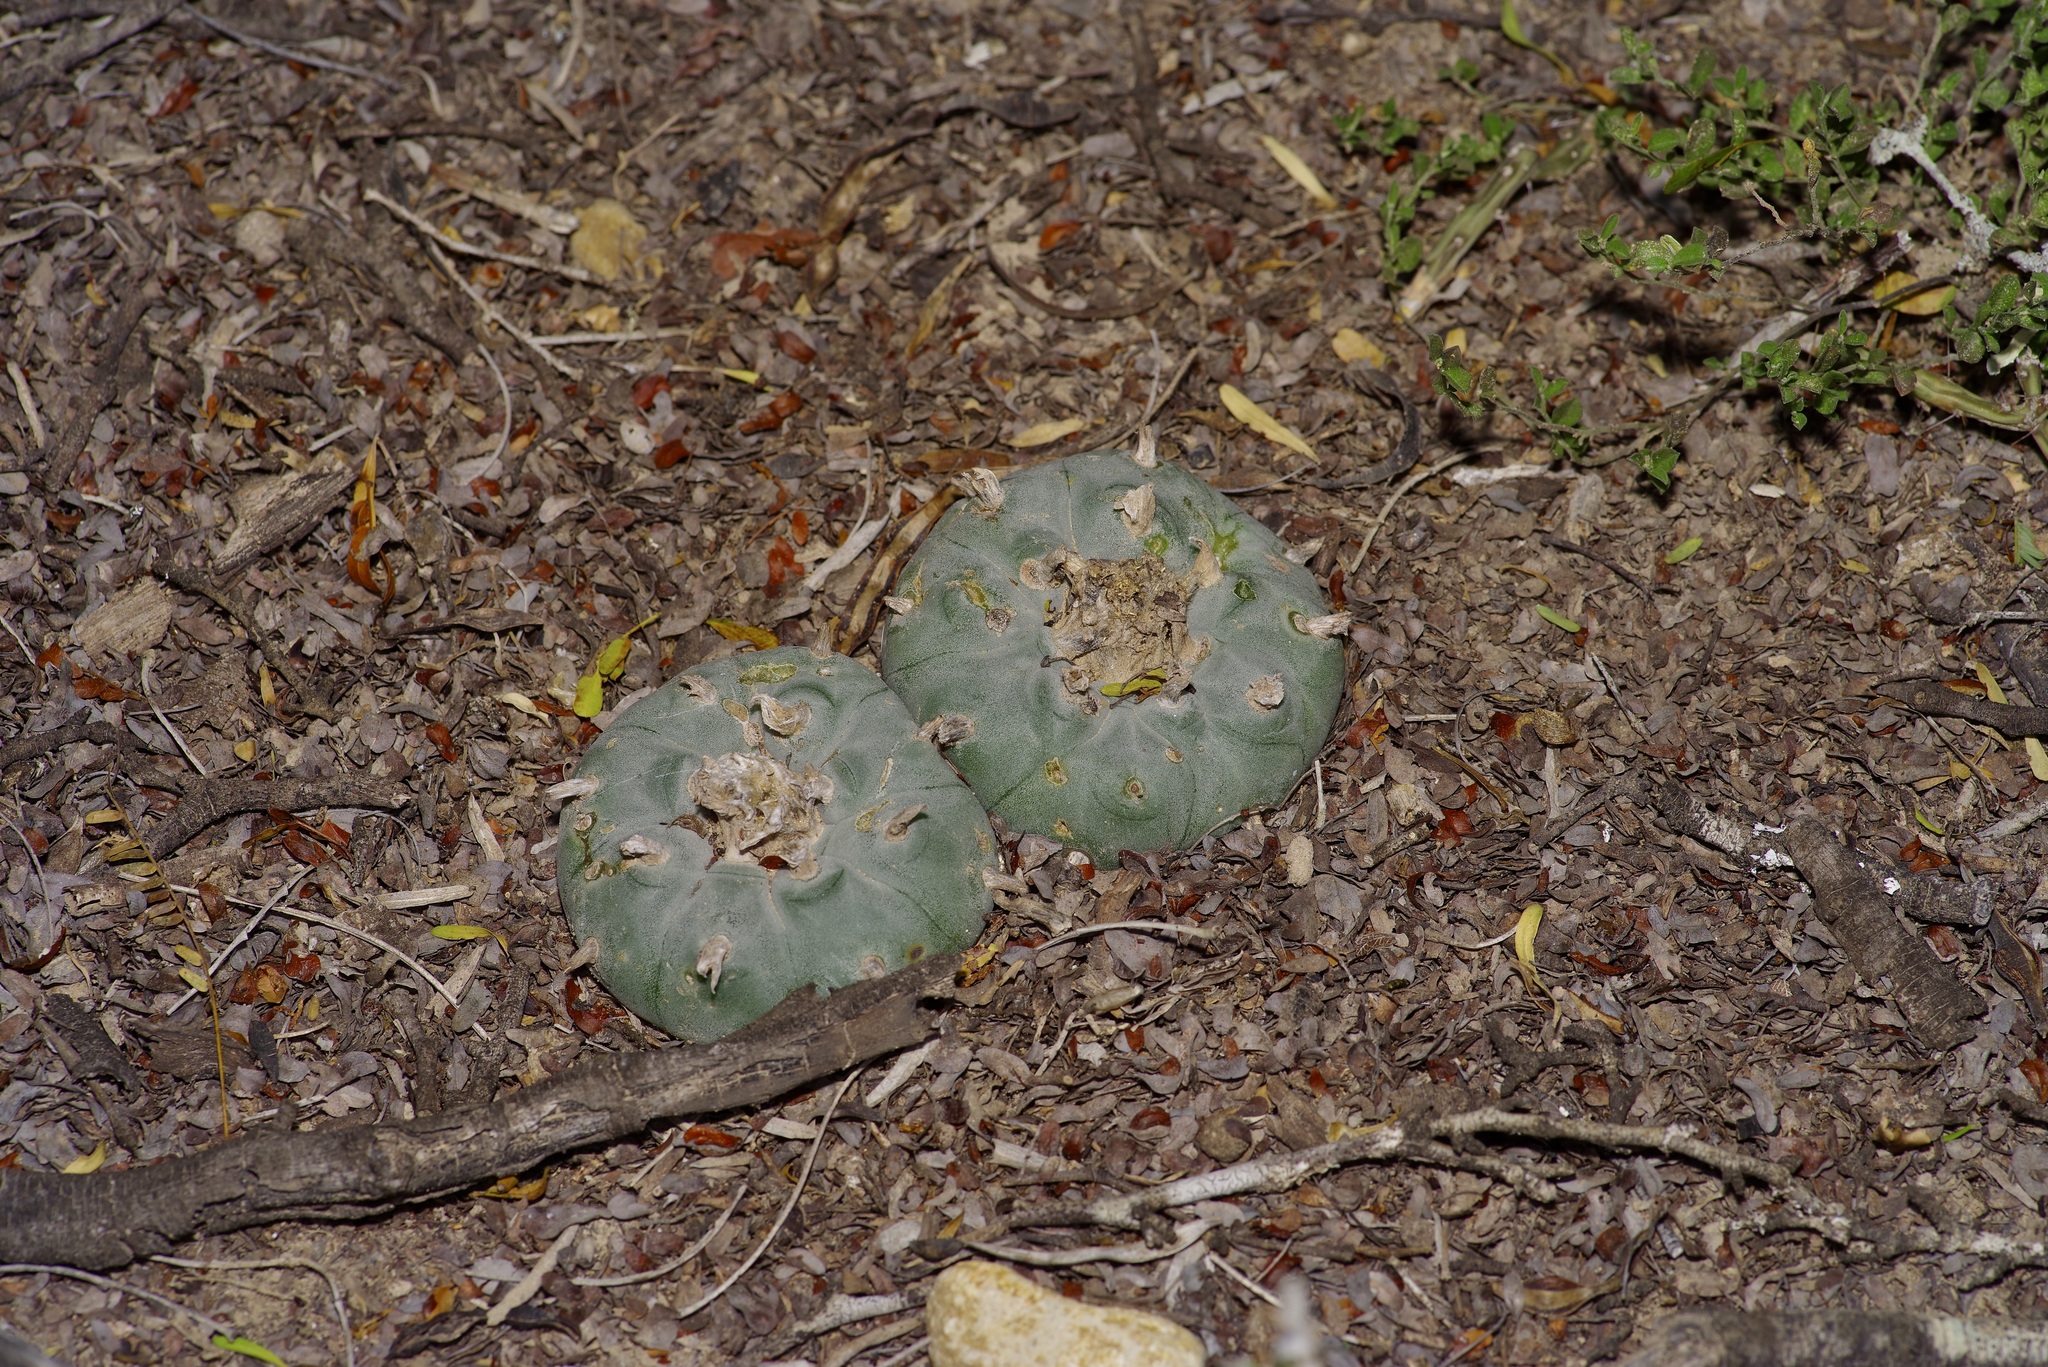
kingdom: Plantae
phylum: Tracheophyta
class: Magnoliopsida
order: Caryophyllales
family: Cactaceae
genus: Lophophora
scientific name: Lophophora williamsii
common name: Indian-dope
